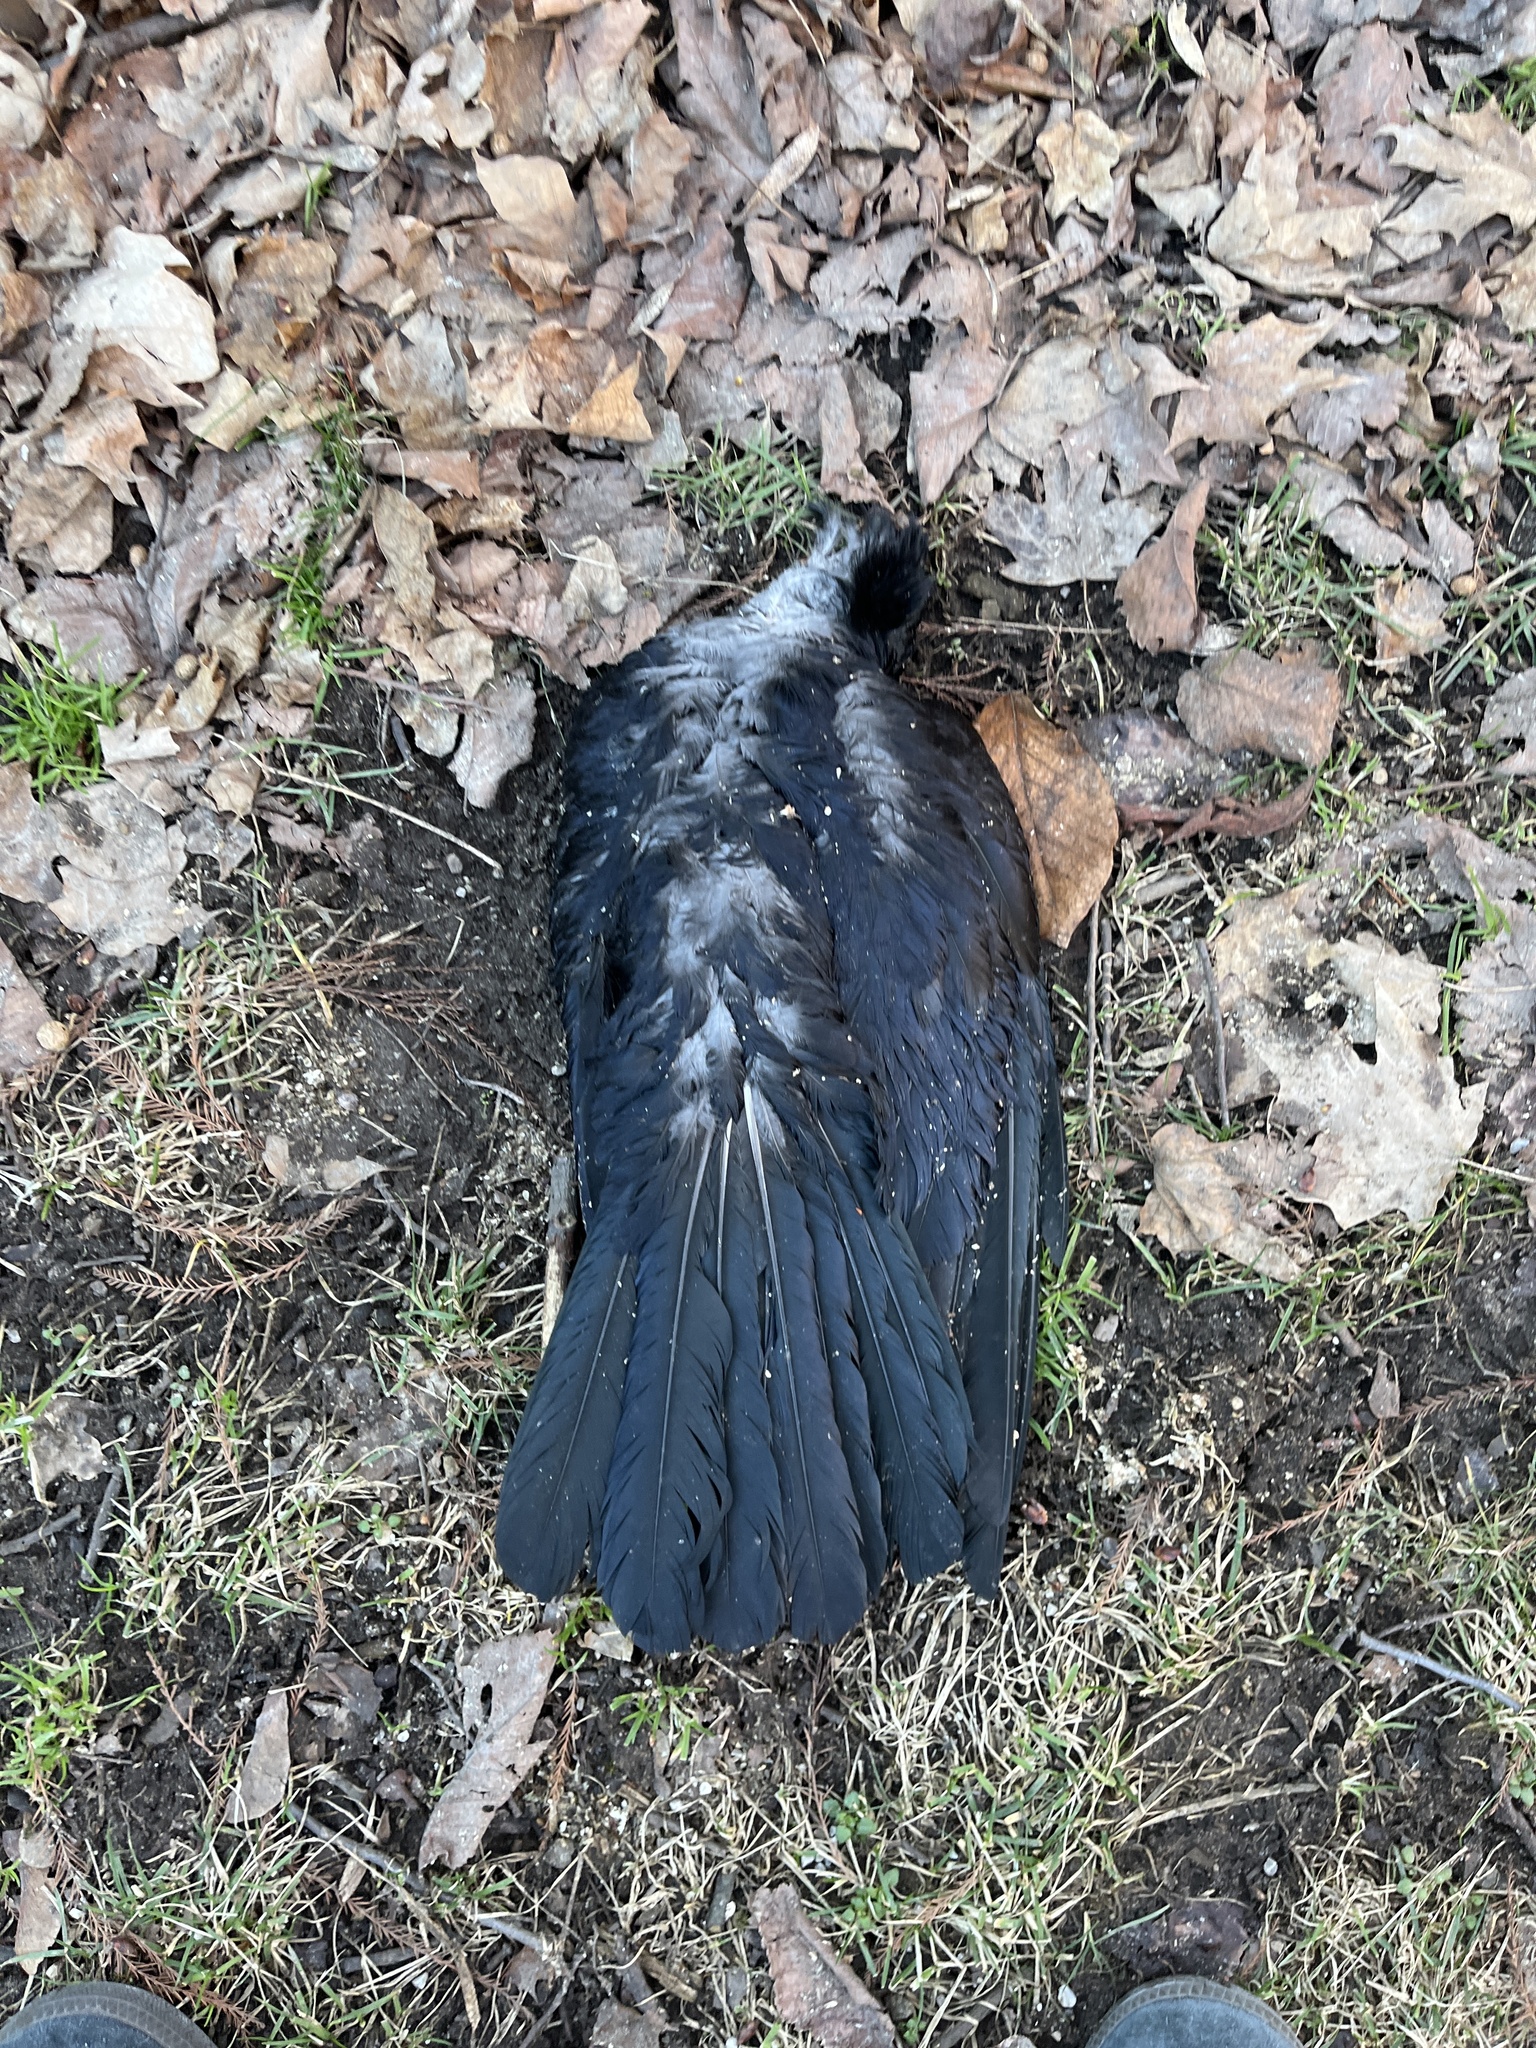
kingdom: Animalia
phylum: Chordata
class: Aves
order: Passeriformes
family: Corvidae
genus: Corvus
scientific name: Corvus brachyrhynchos
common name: American crow
